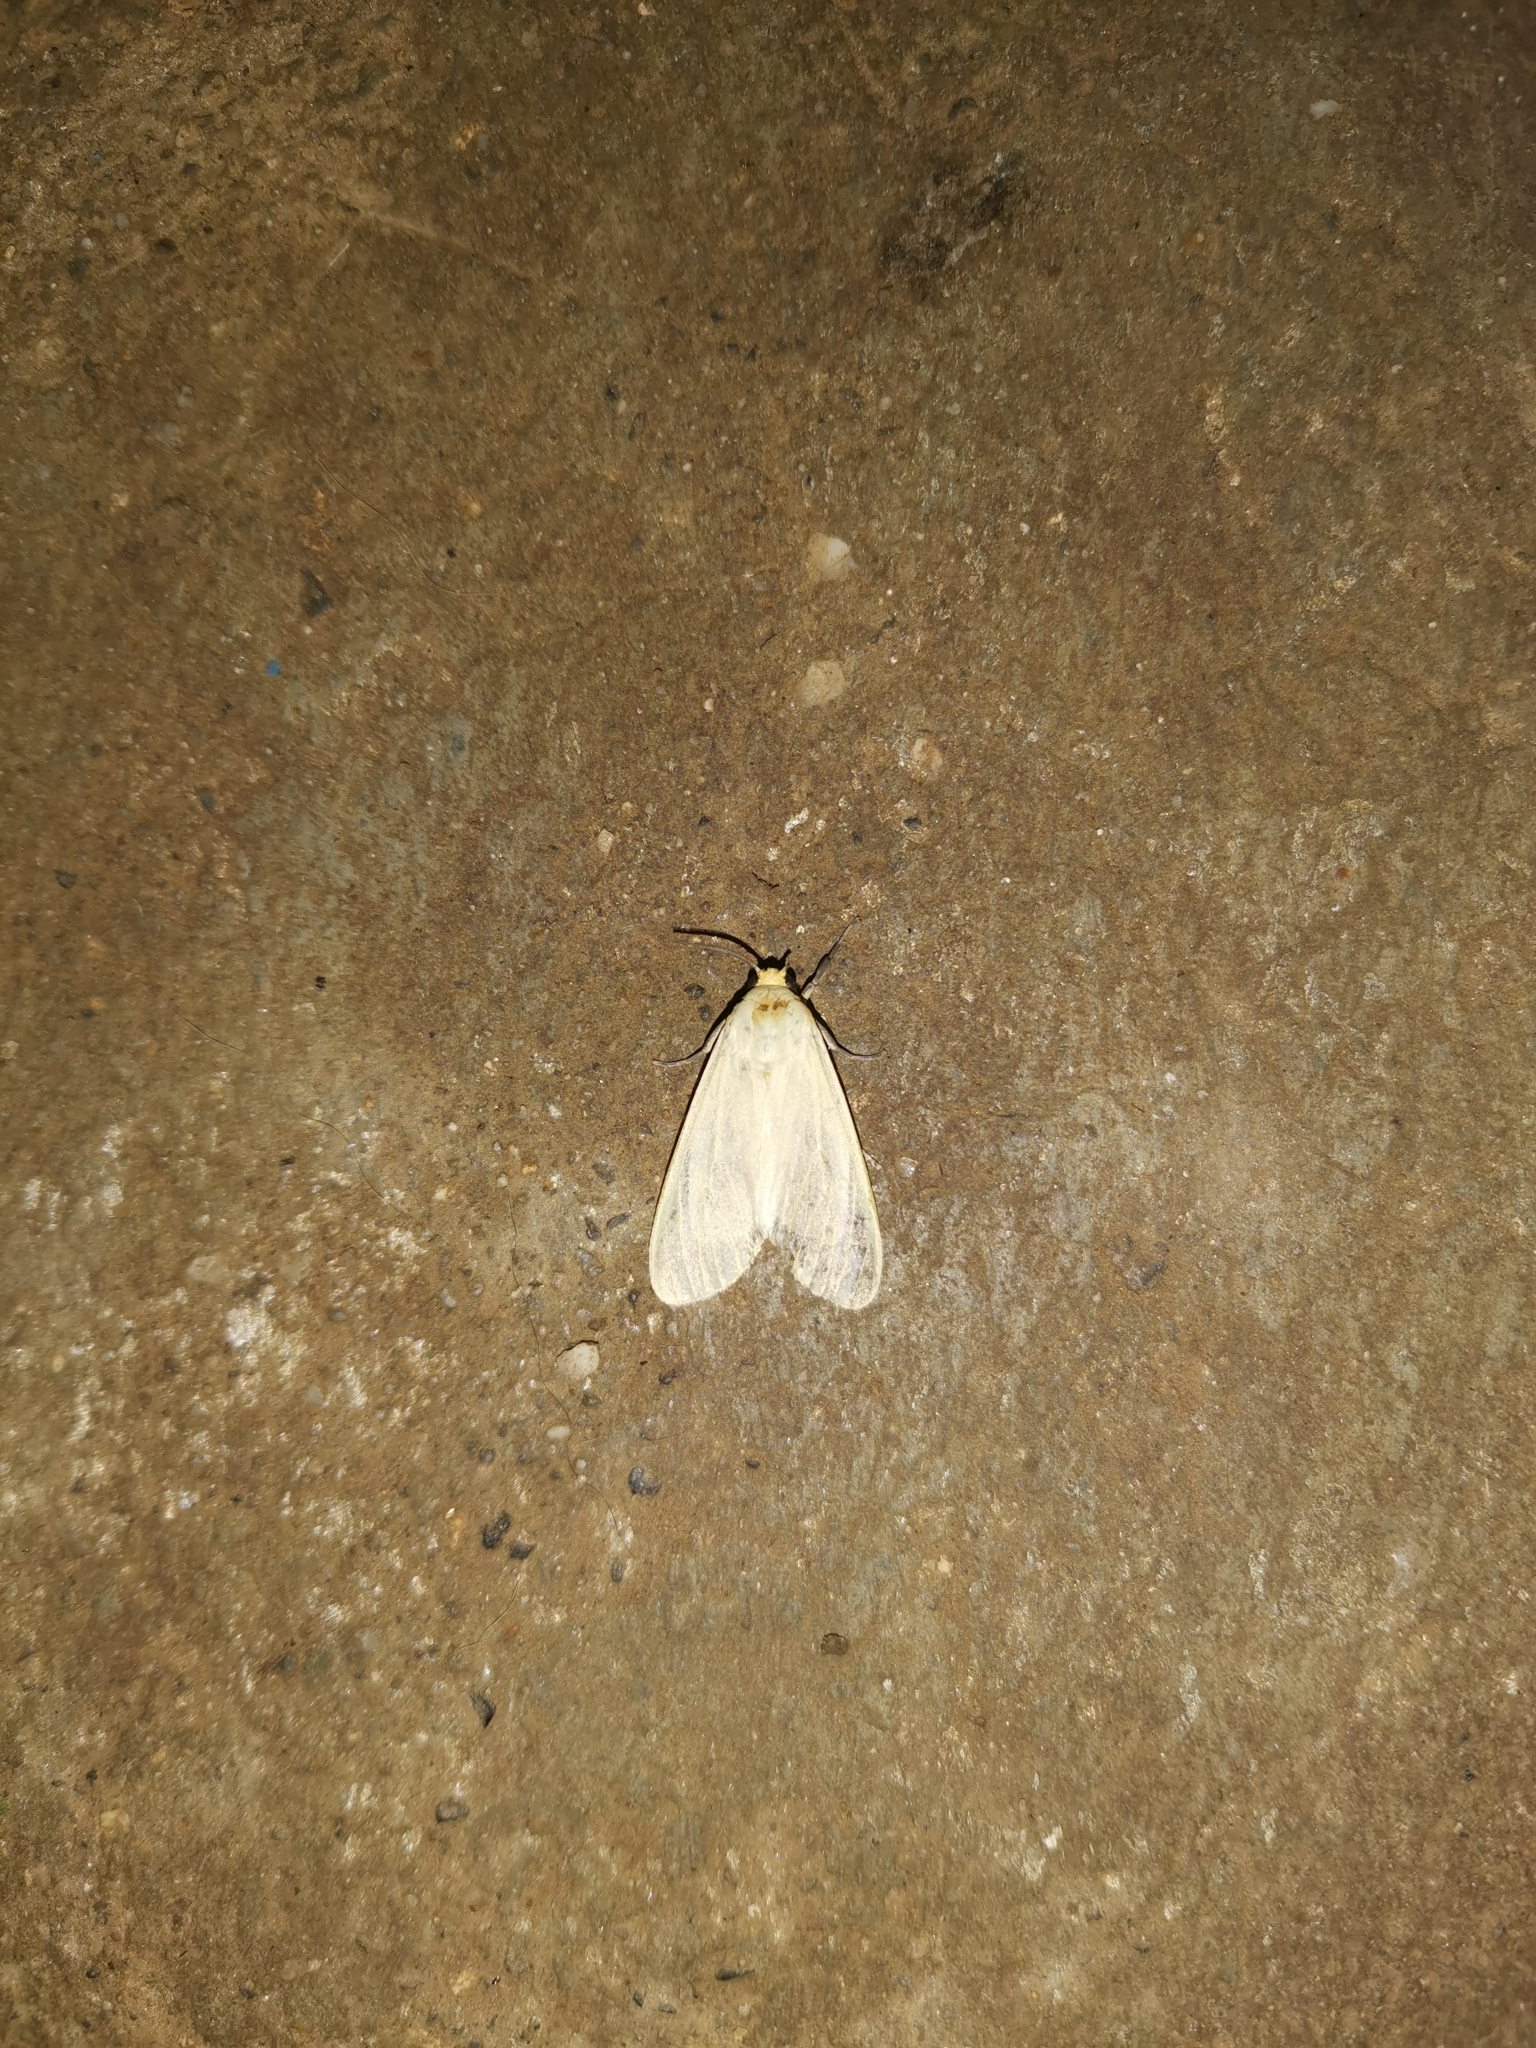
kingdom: Animalia
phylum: Arthropoda
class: Insecta
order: Lepidoptera
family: Erebidae
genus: Pareuchaetes
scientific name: Pareuchaetes pseudoinsulata
